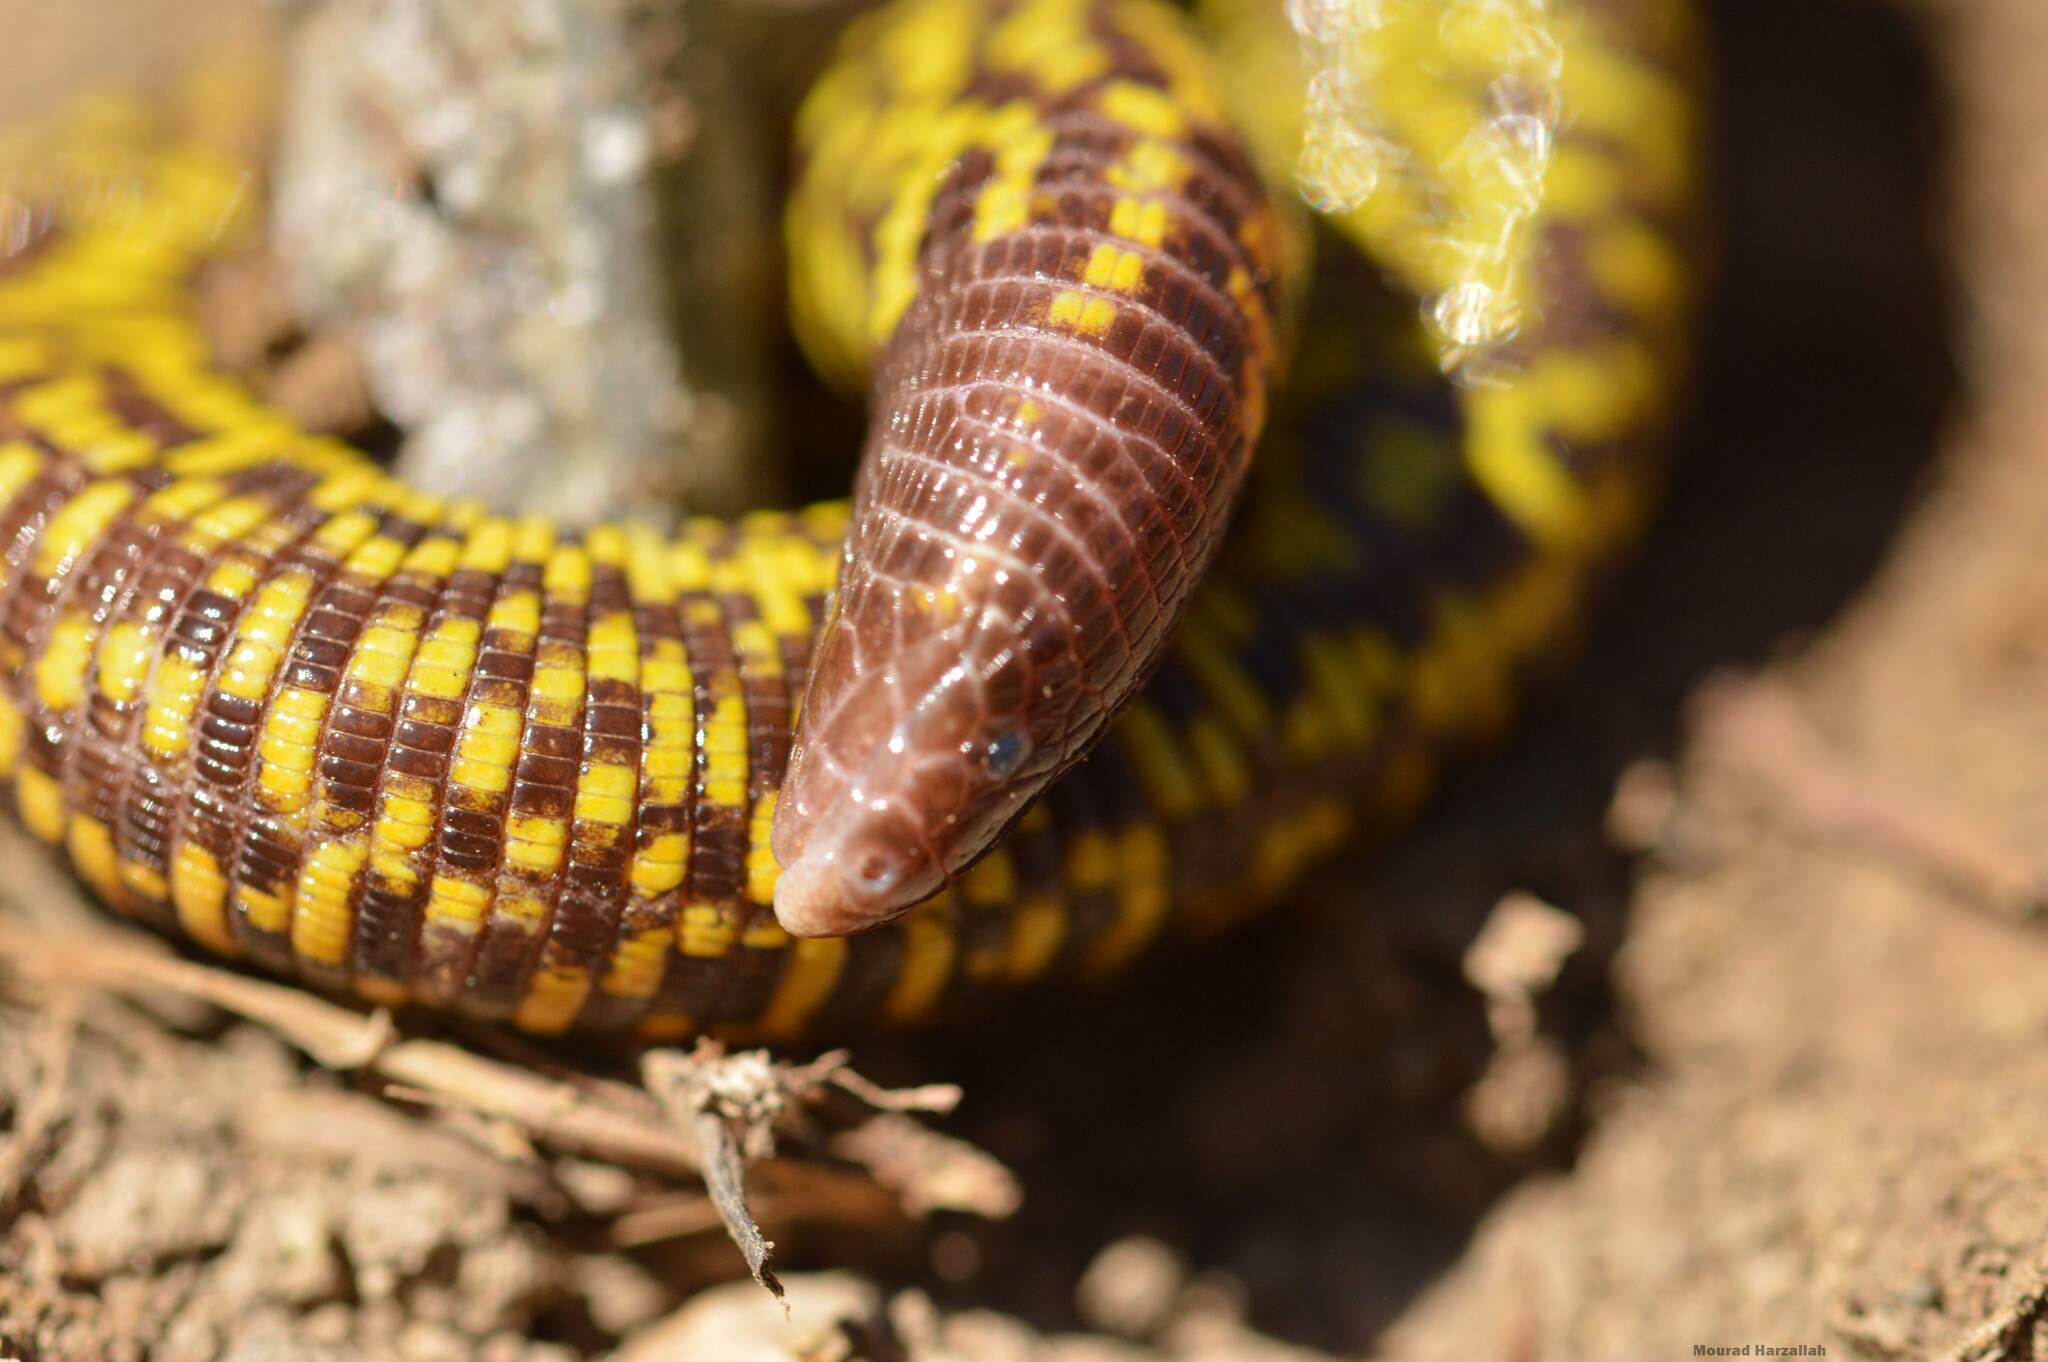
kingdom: Animalia
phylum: Chordata
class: Squamata
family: Trogonophidae
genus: Trogonophis
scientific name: Trogonophis wiegmanni
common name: Checkerboard worm lizard
